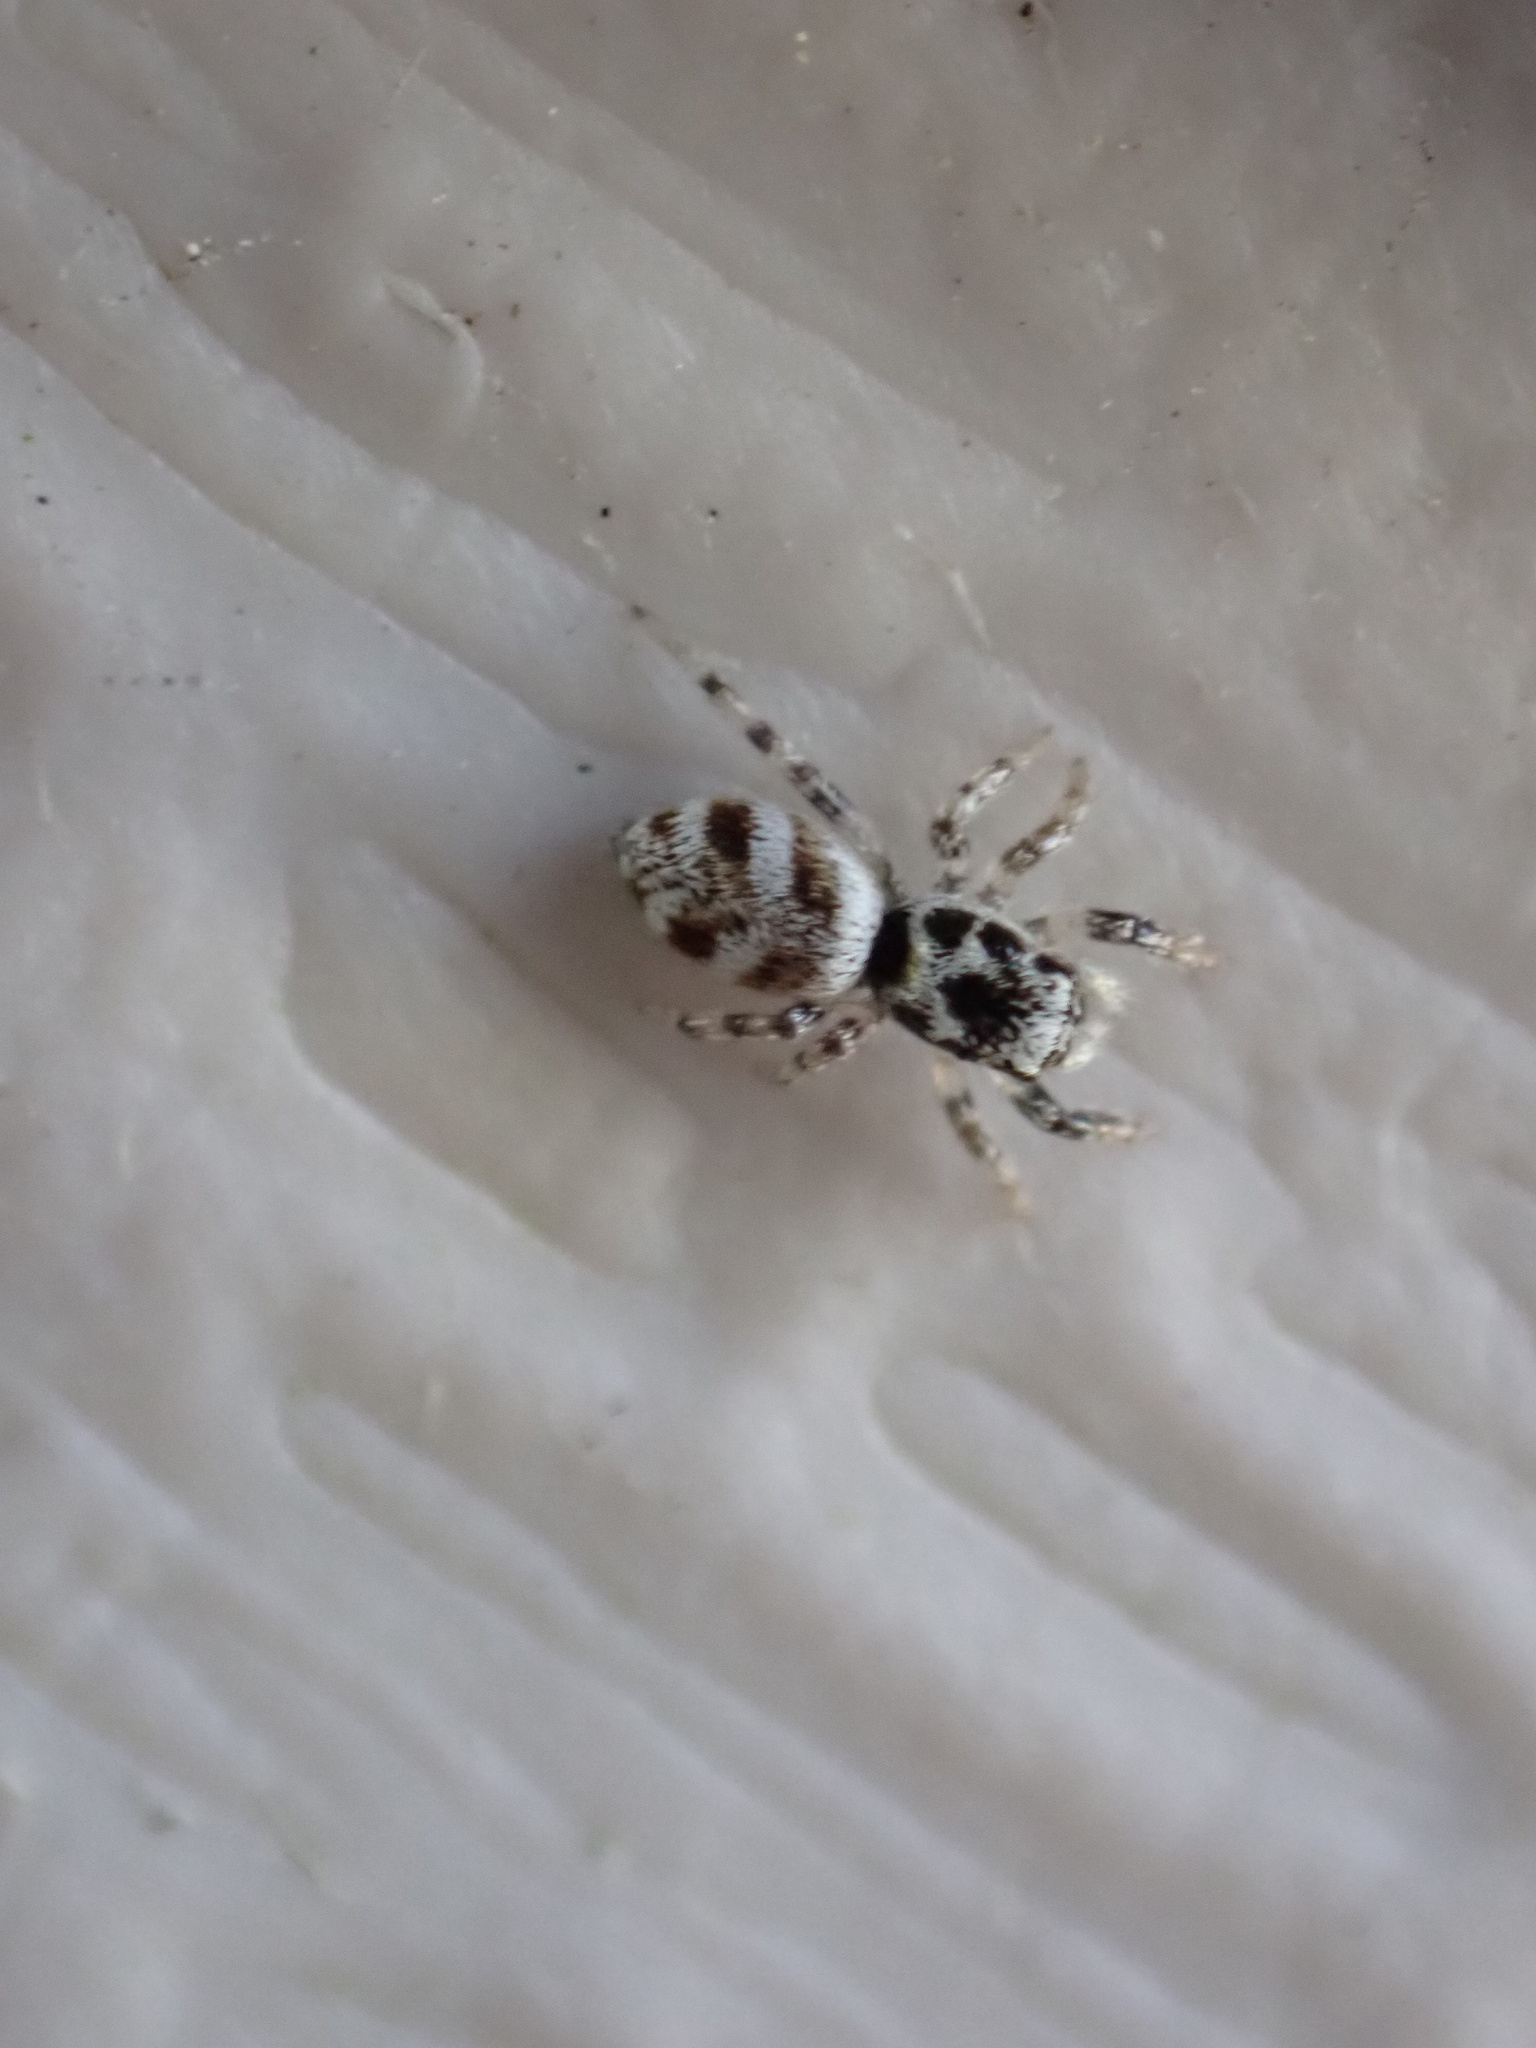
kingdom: Animalia
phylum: Arthropoda
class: Arachnida
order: Araneae
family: Salticidae
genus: Salticus
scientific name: Salticus scenicus
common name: Zebra jumper
